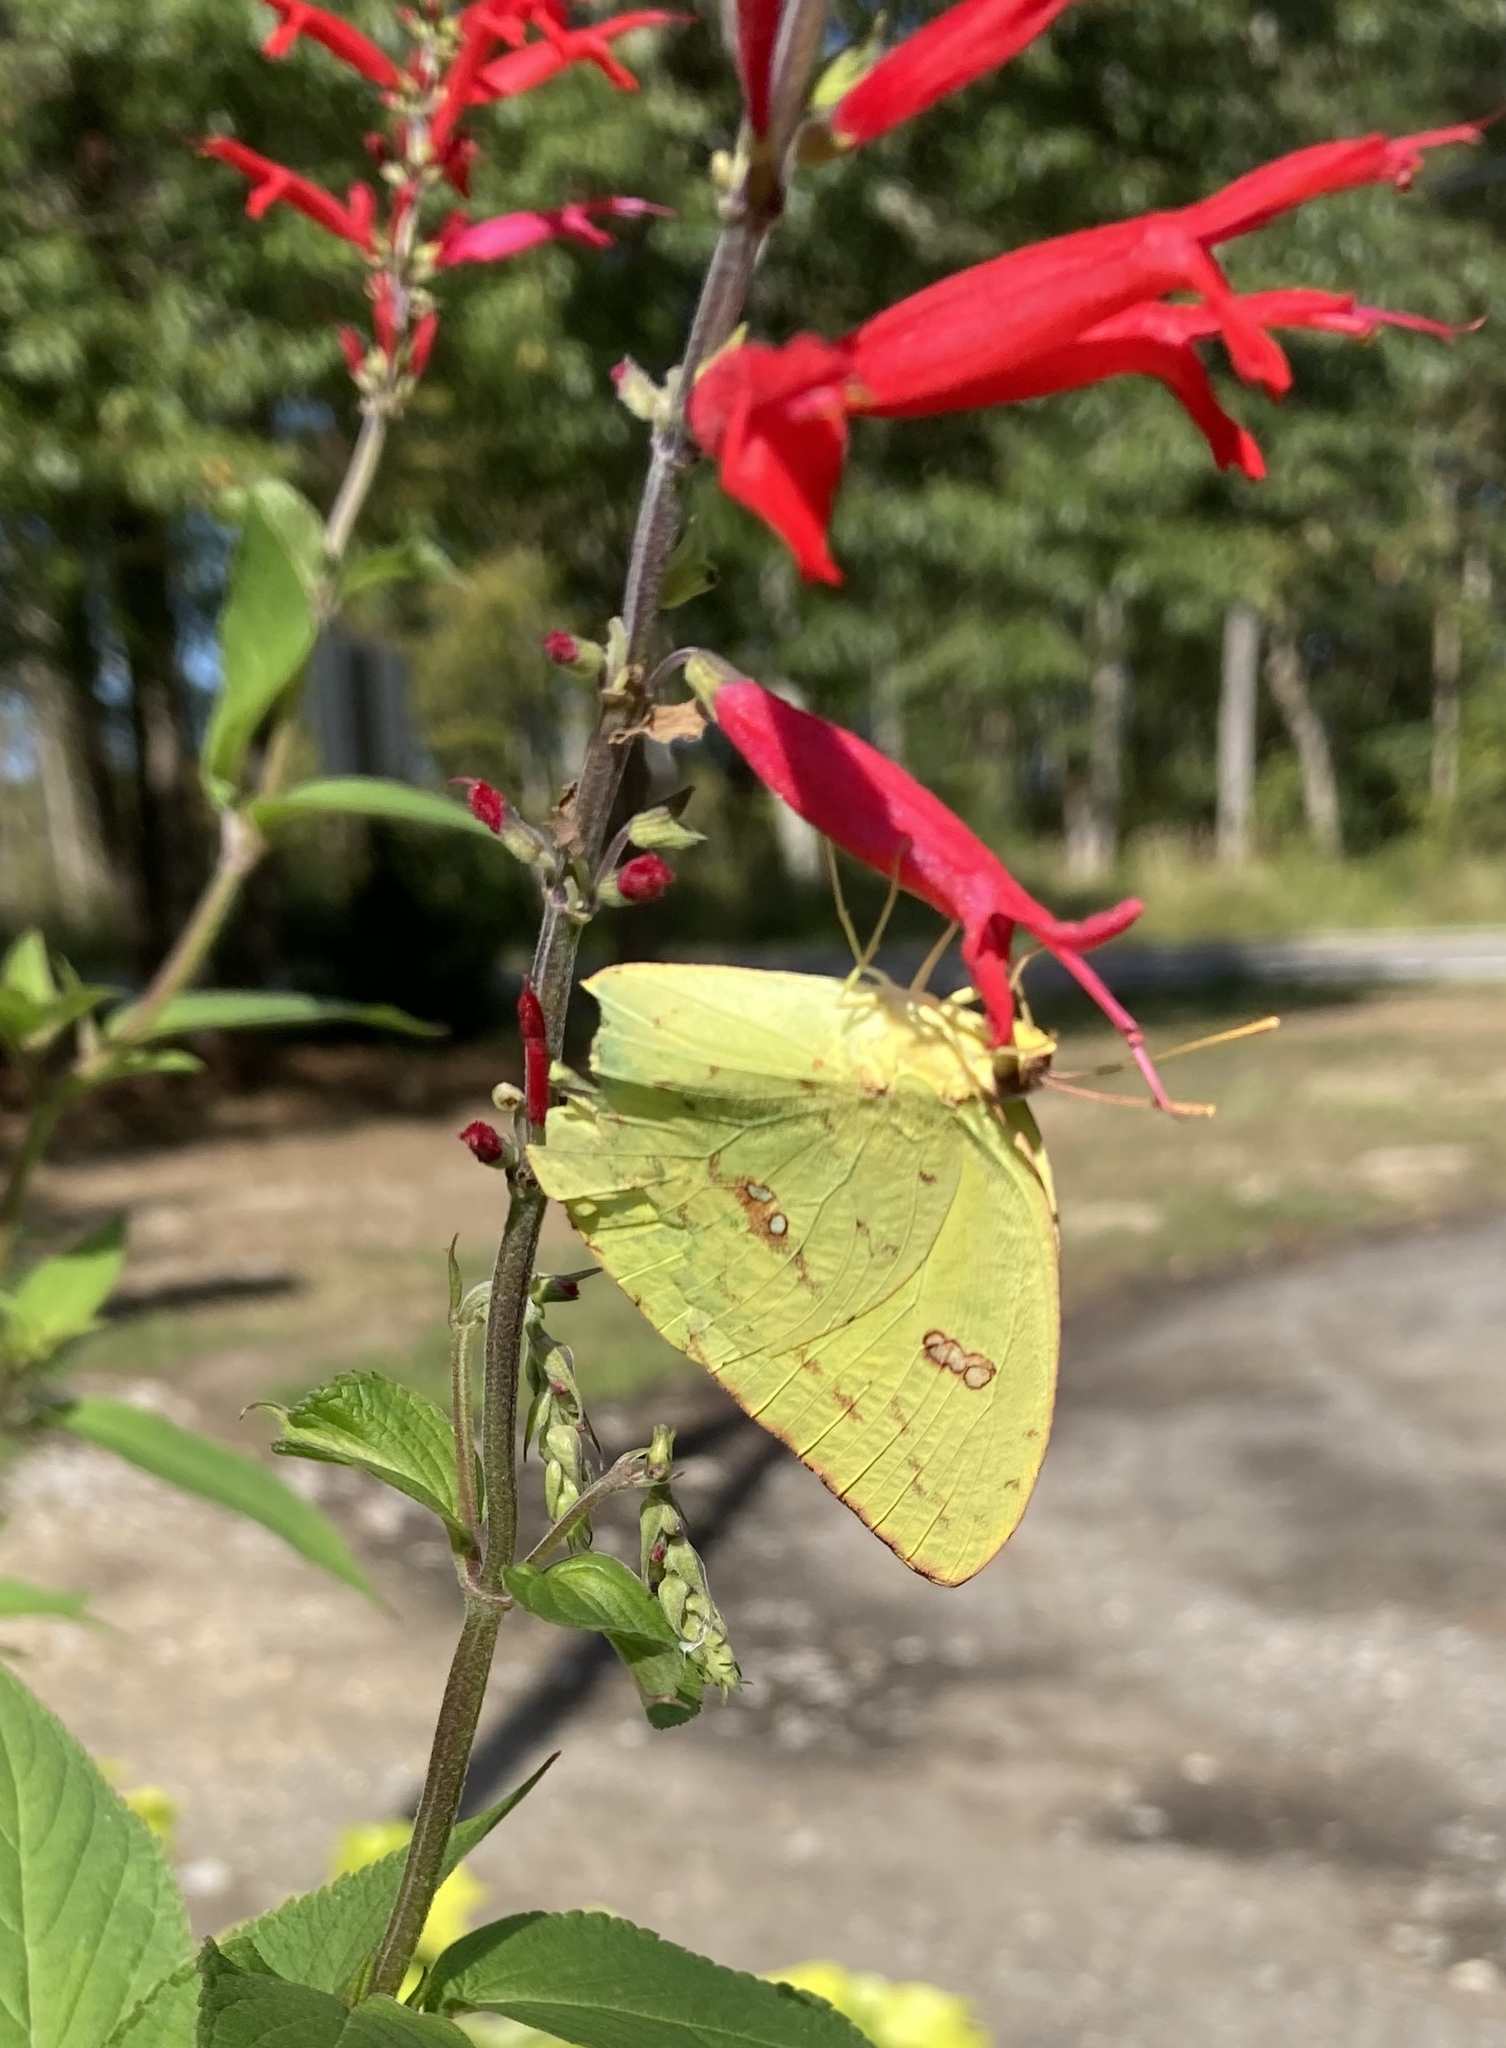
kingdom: Animalia
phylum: Arthropoda
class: Insecta
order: Lepidoptera
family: Pieridae
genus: Phoebis
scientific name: Phoebis sennae
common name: Cloudless sulphur
